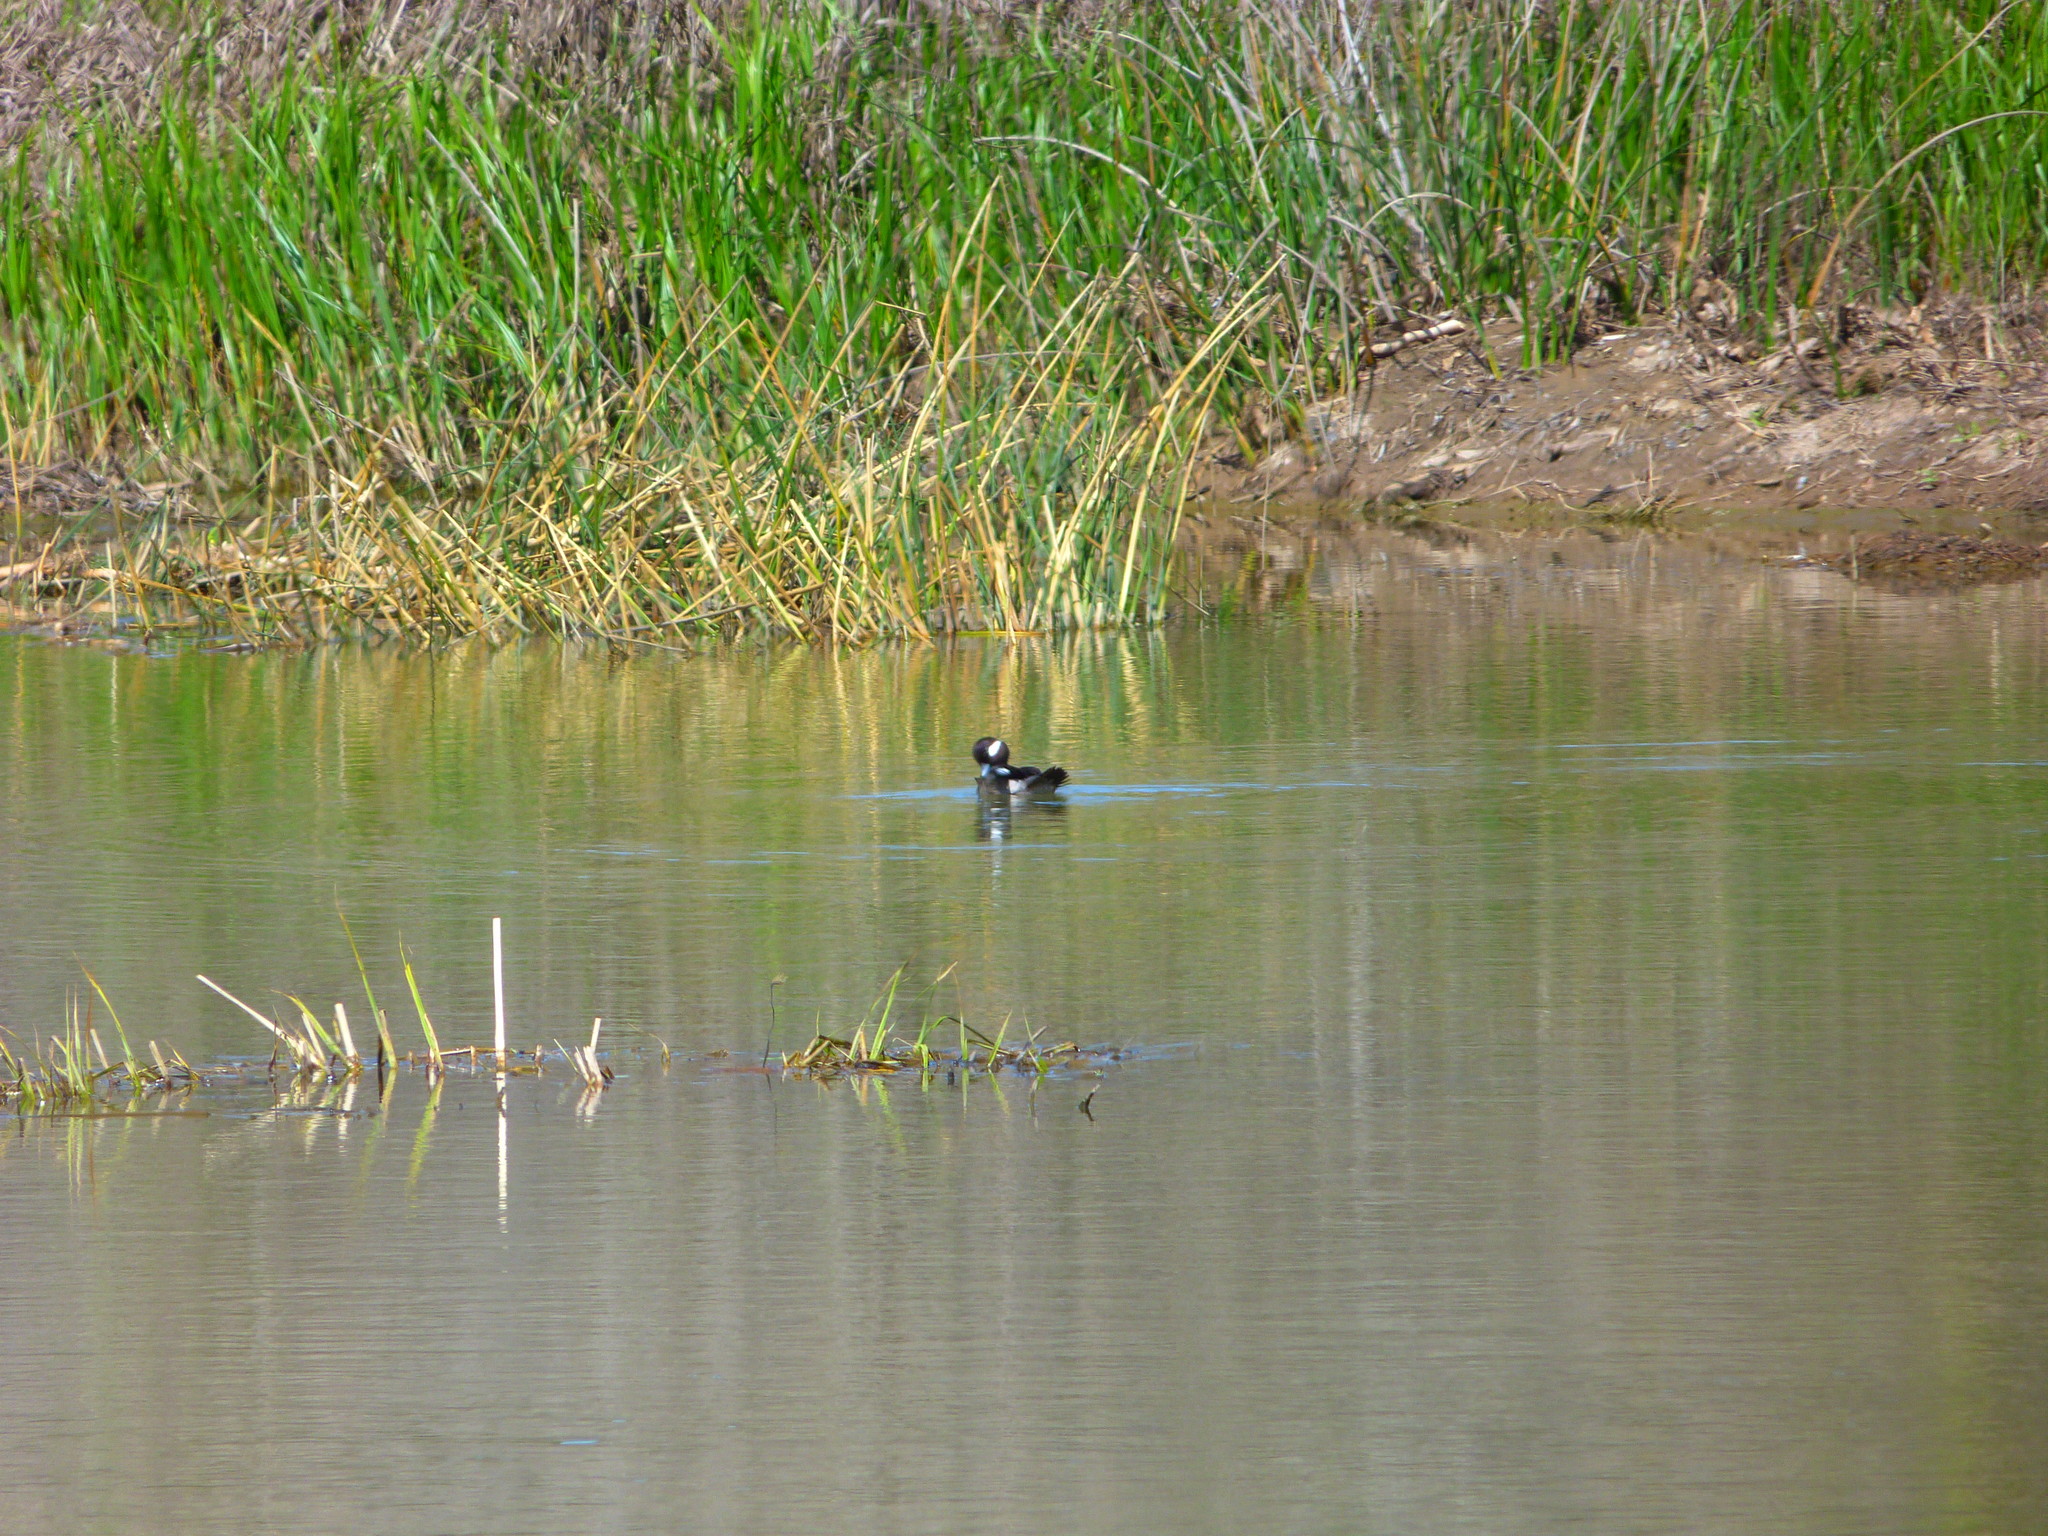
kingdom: Animalia
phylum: Chordata
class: Aves
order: Anseriformes
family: Anatidae
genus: Bucephala
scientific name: Bucephala albeola
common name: Bufflehead
